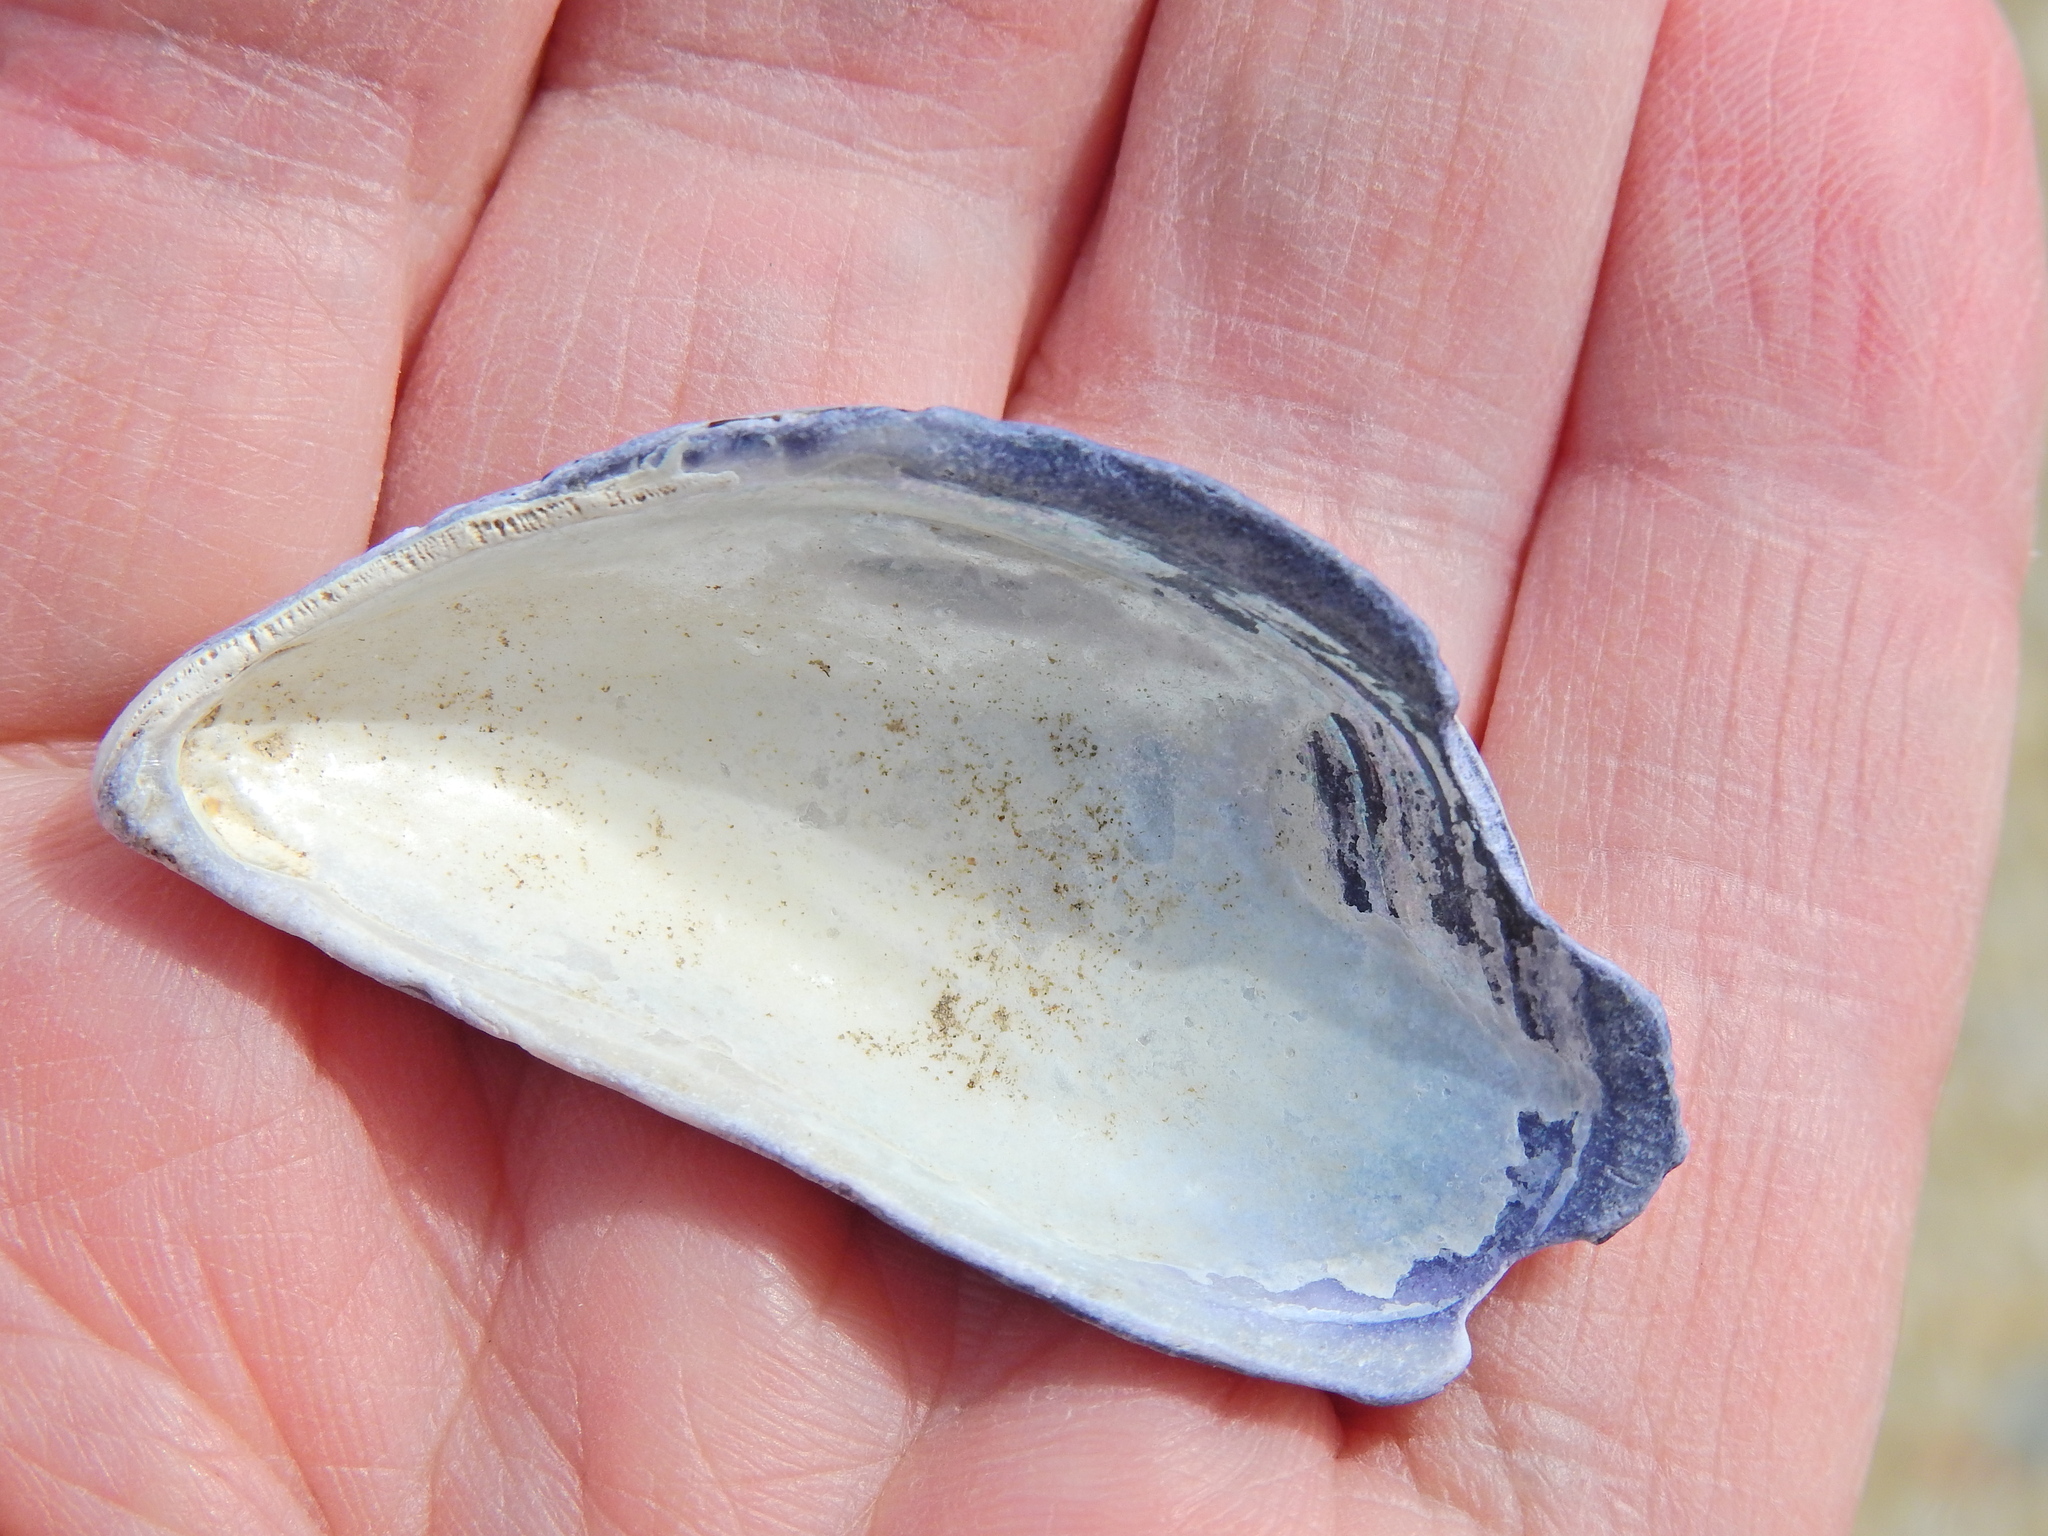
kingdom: Animalia
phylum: Mollusca
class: Bivalvia
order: Mytilida
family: Mytilidae
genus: Mytilus
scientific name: Mytilus edulis
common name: Blue mussel
